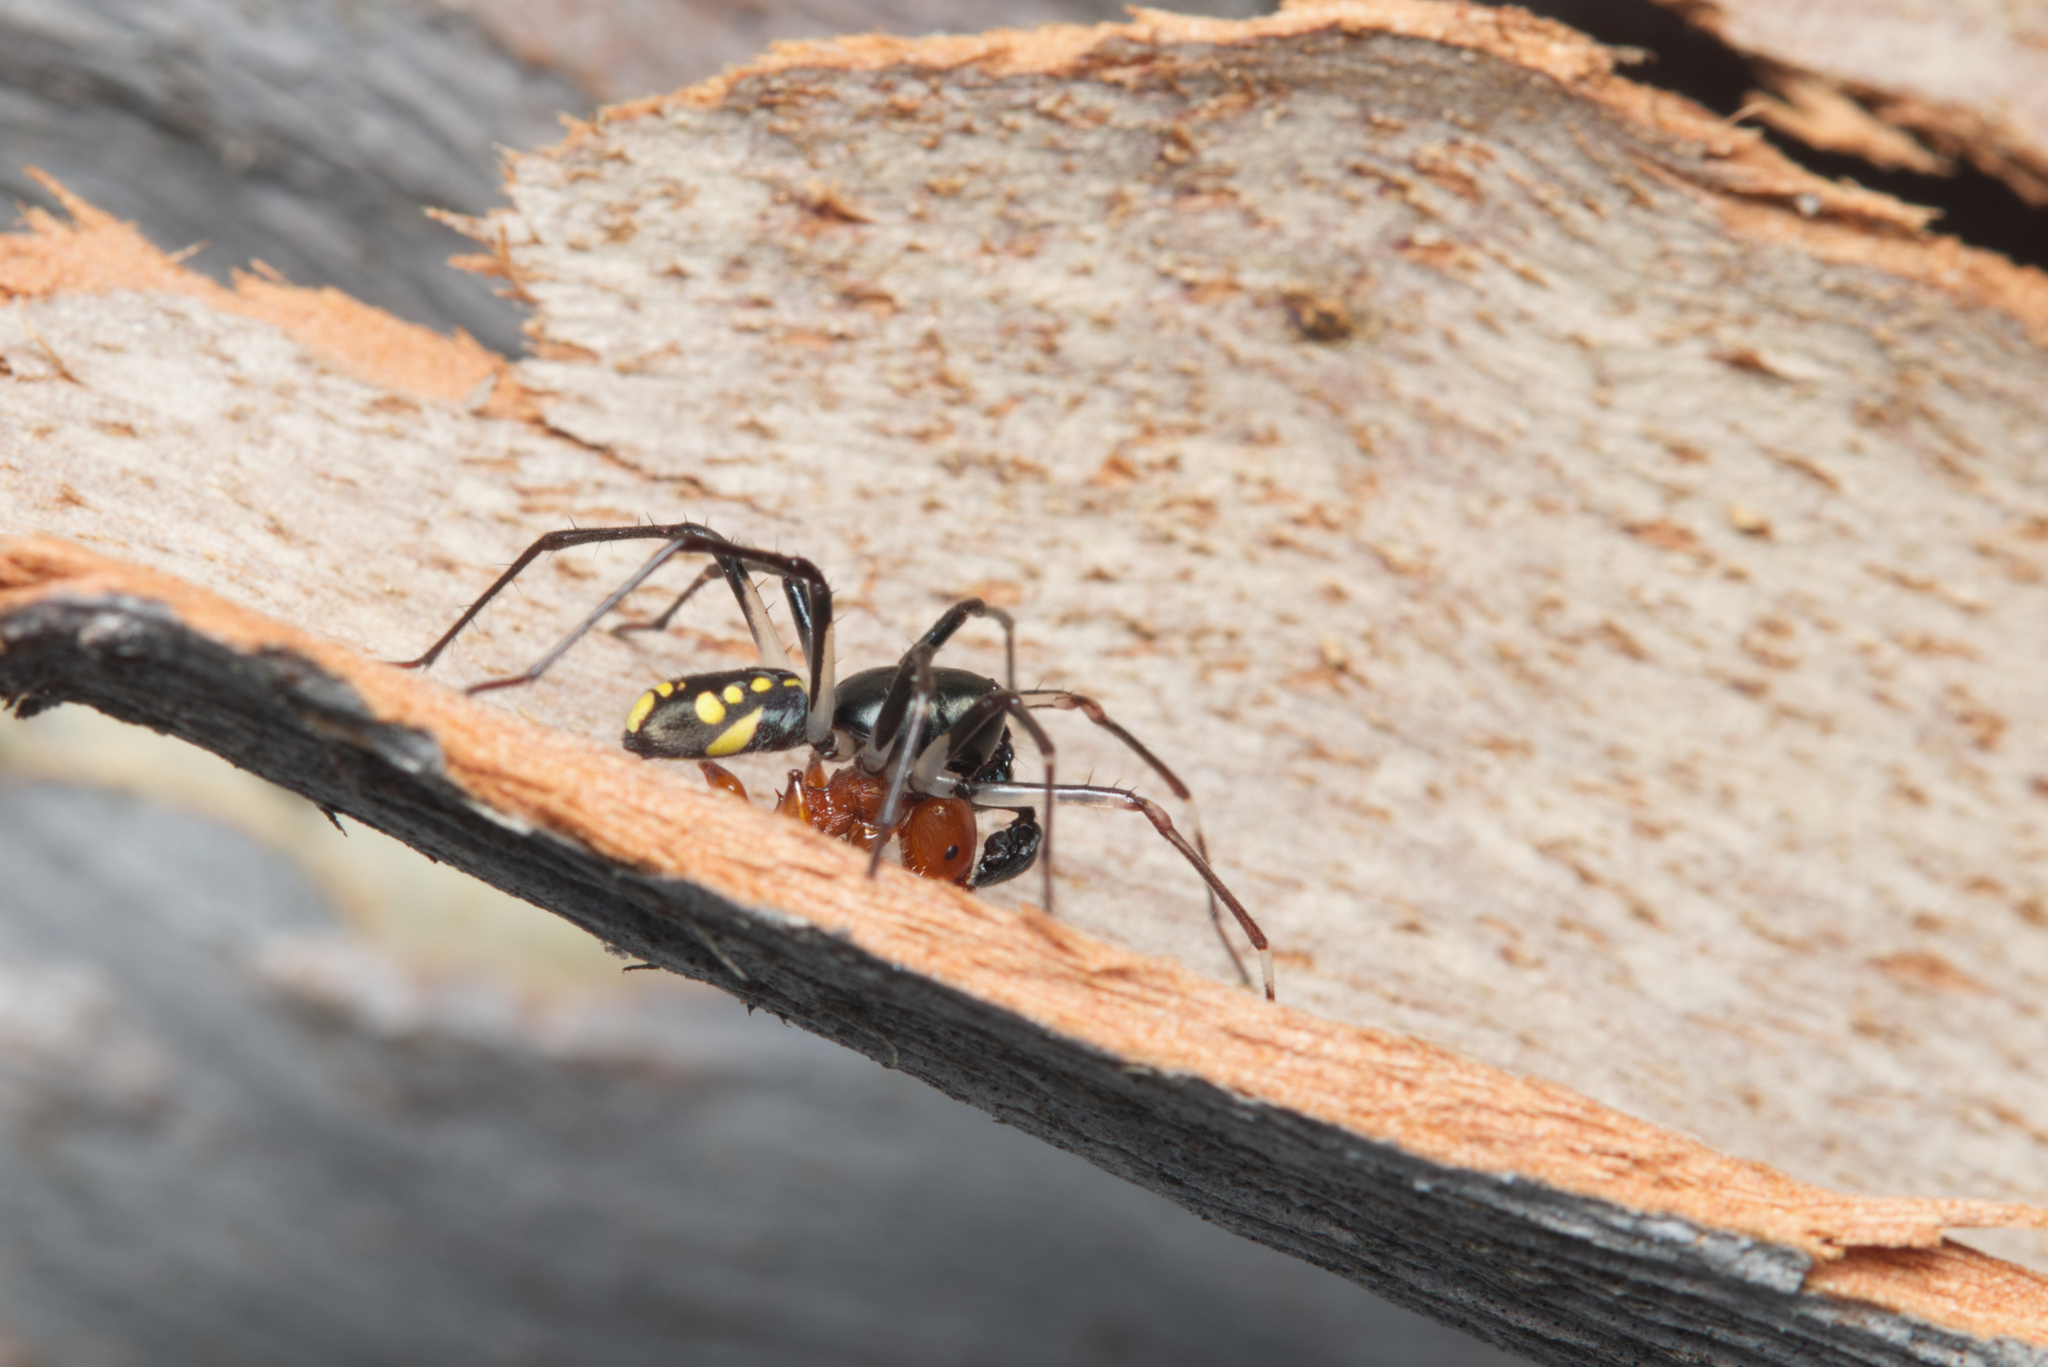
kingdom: Animalia
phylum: Arthropoda
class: Arachnida
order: Araneae
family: Zodariidae
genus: Subasteron
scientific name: Subasteron daviesae
